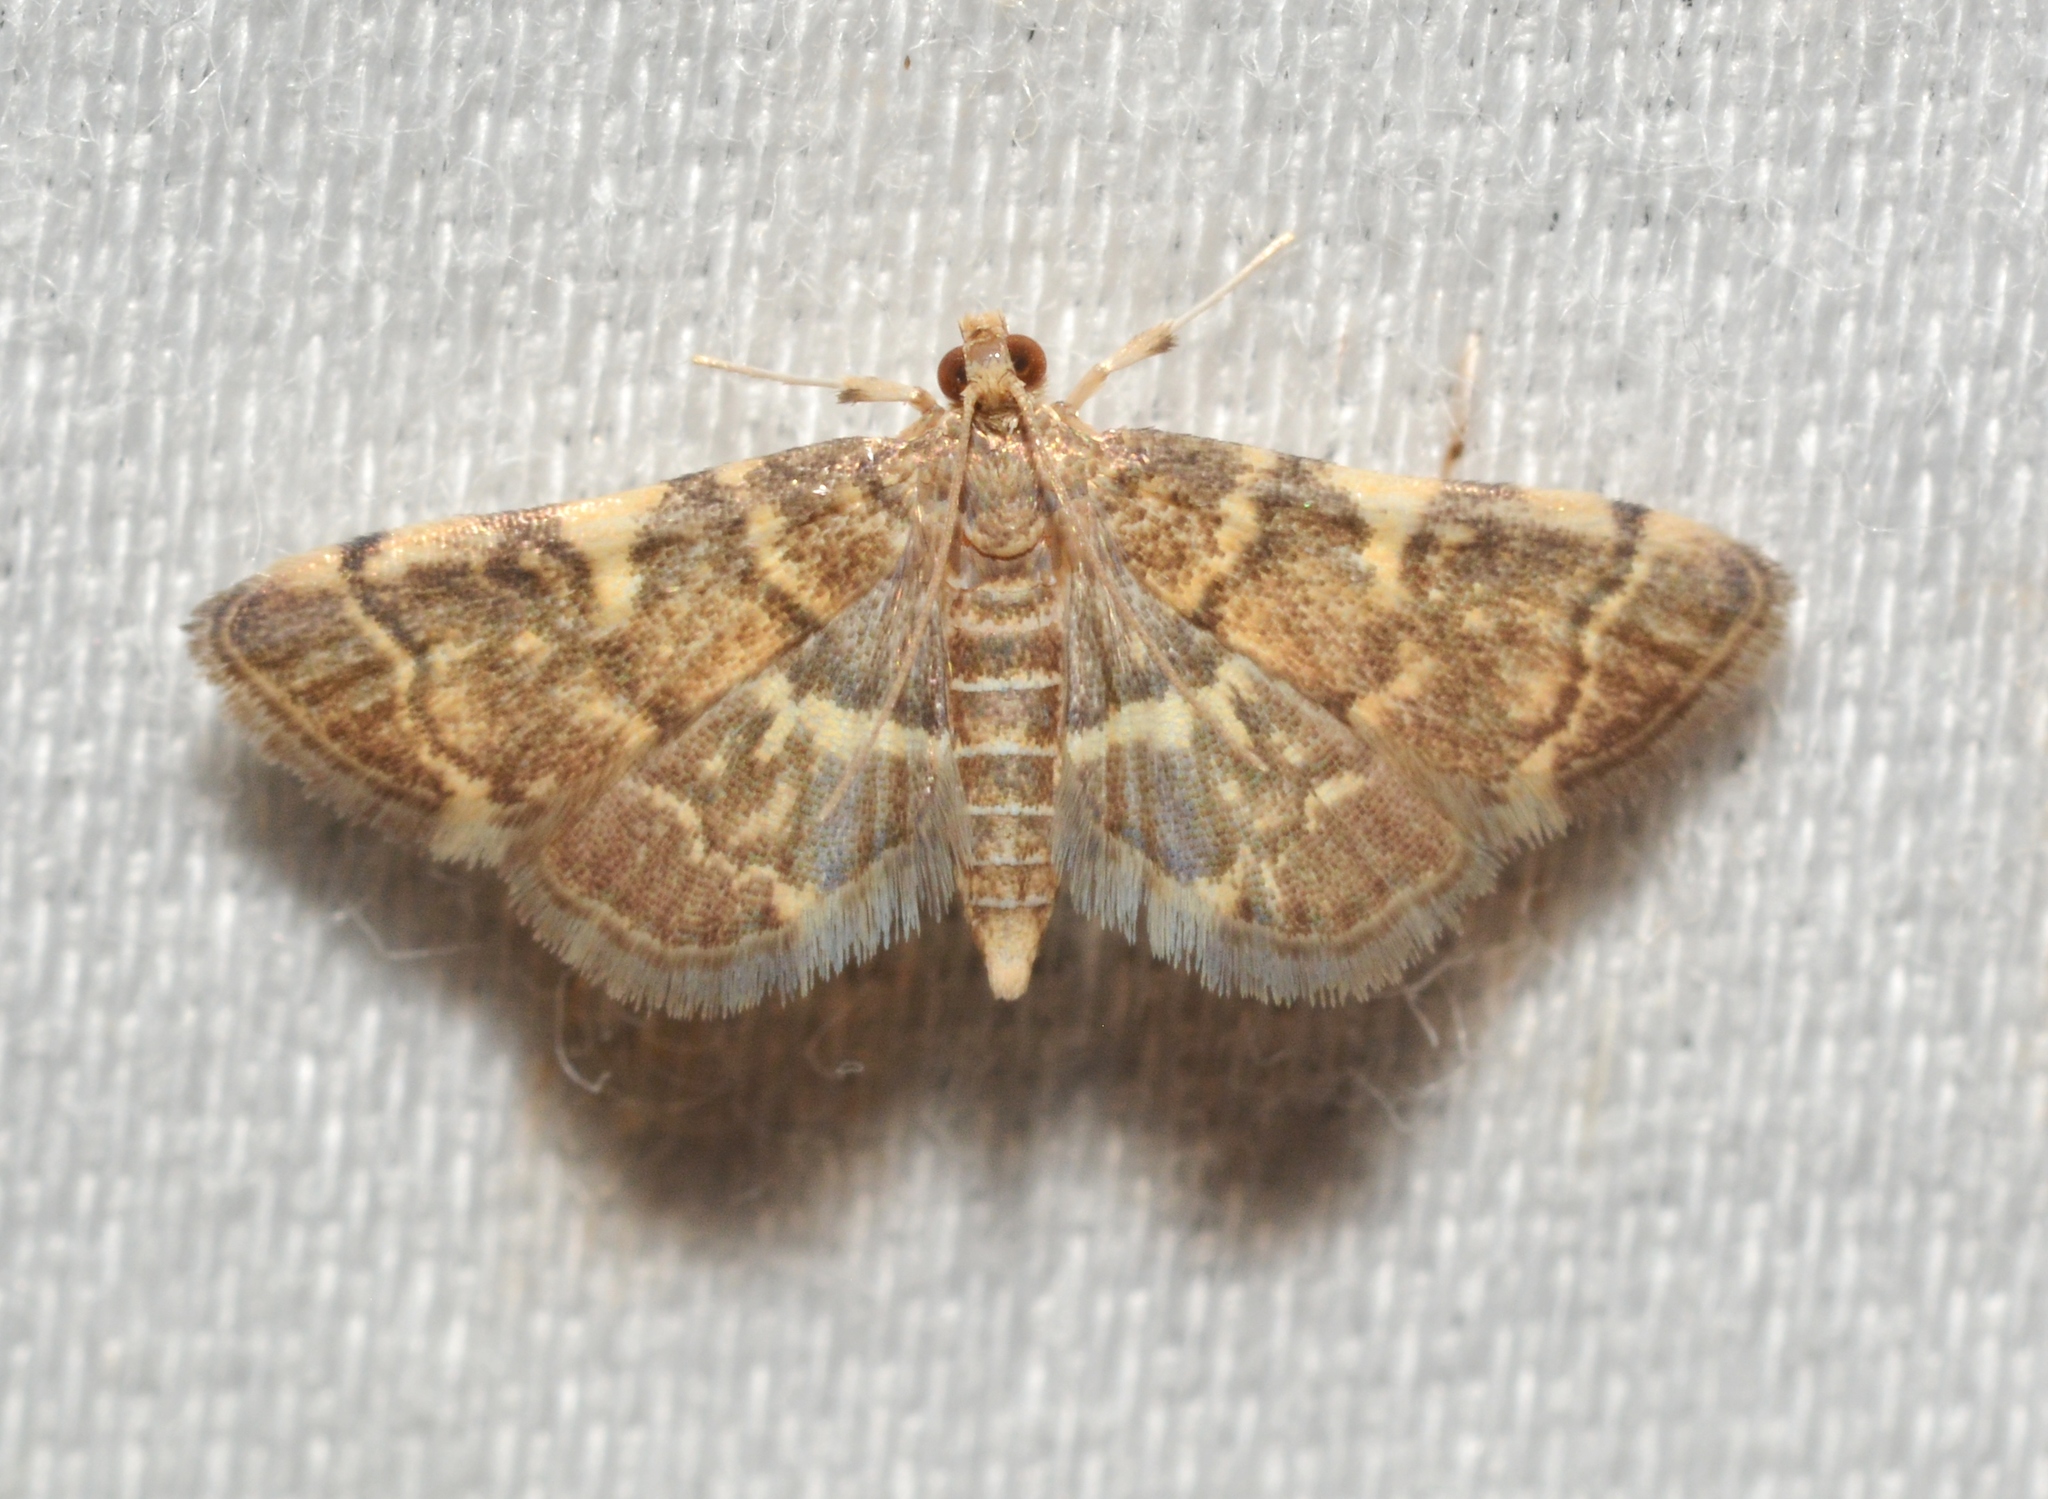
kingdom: Animalia
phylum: Arthropoda
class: Insecta
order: Lepidoptera
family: Crambidae
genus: Anageshna
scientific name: Anageshna primordialis
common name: Yellow-spotted webworm moth
